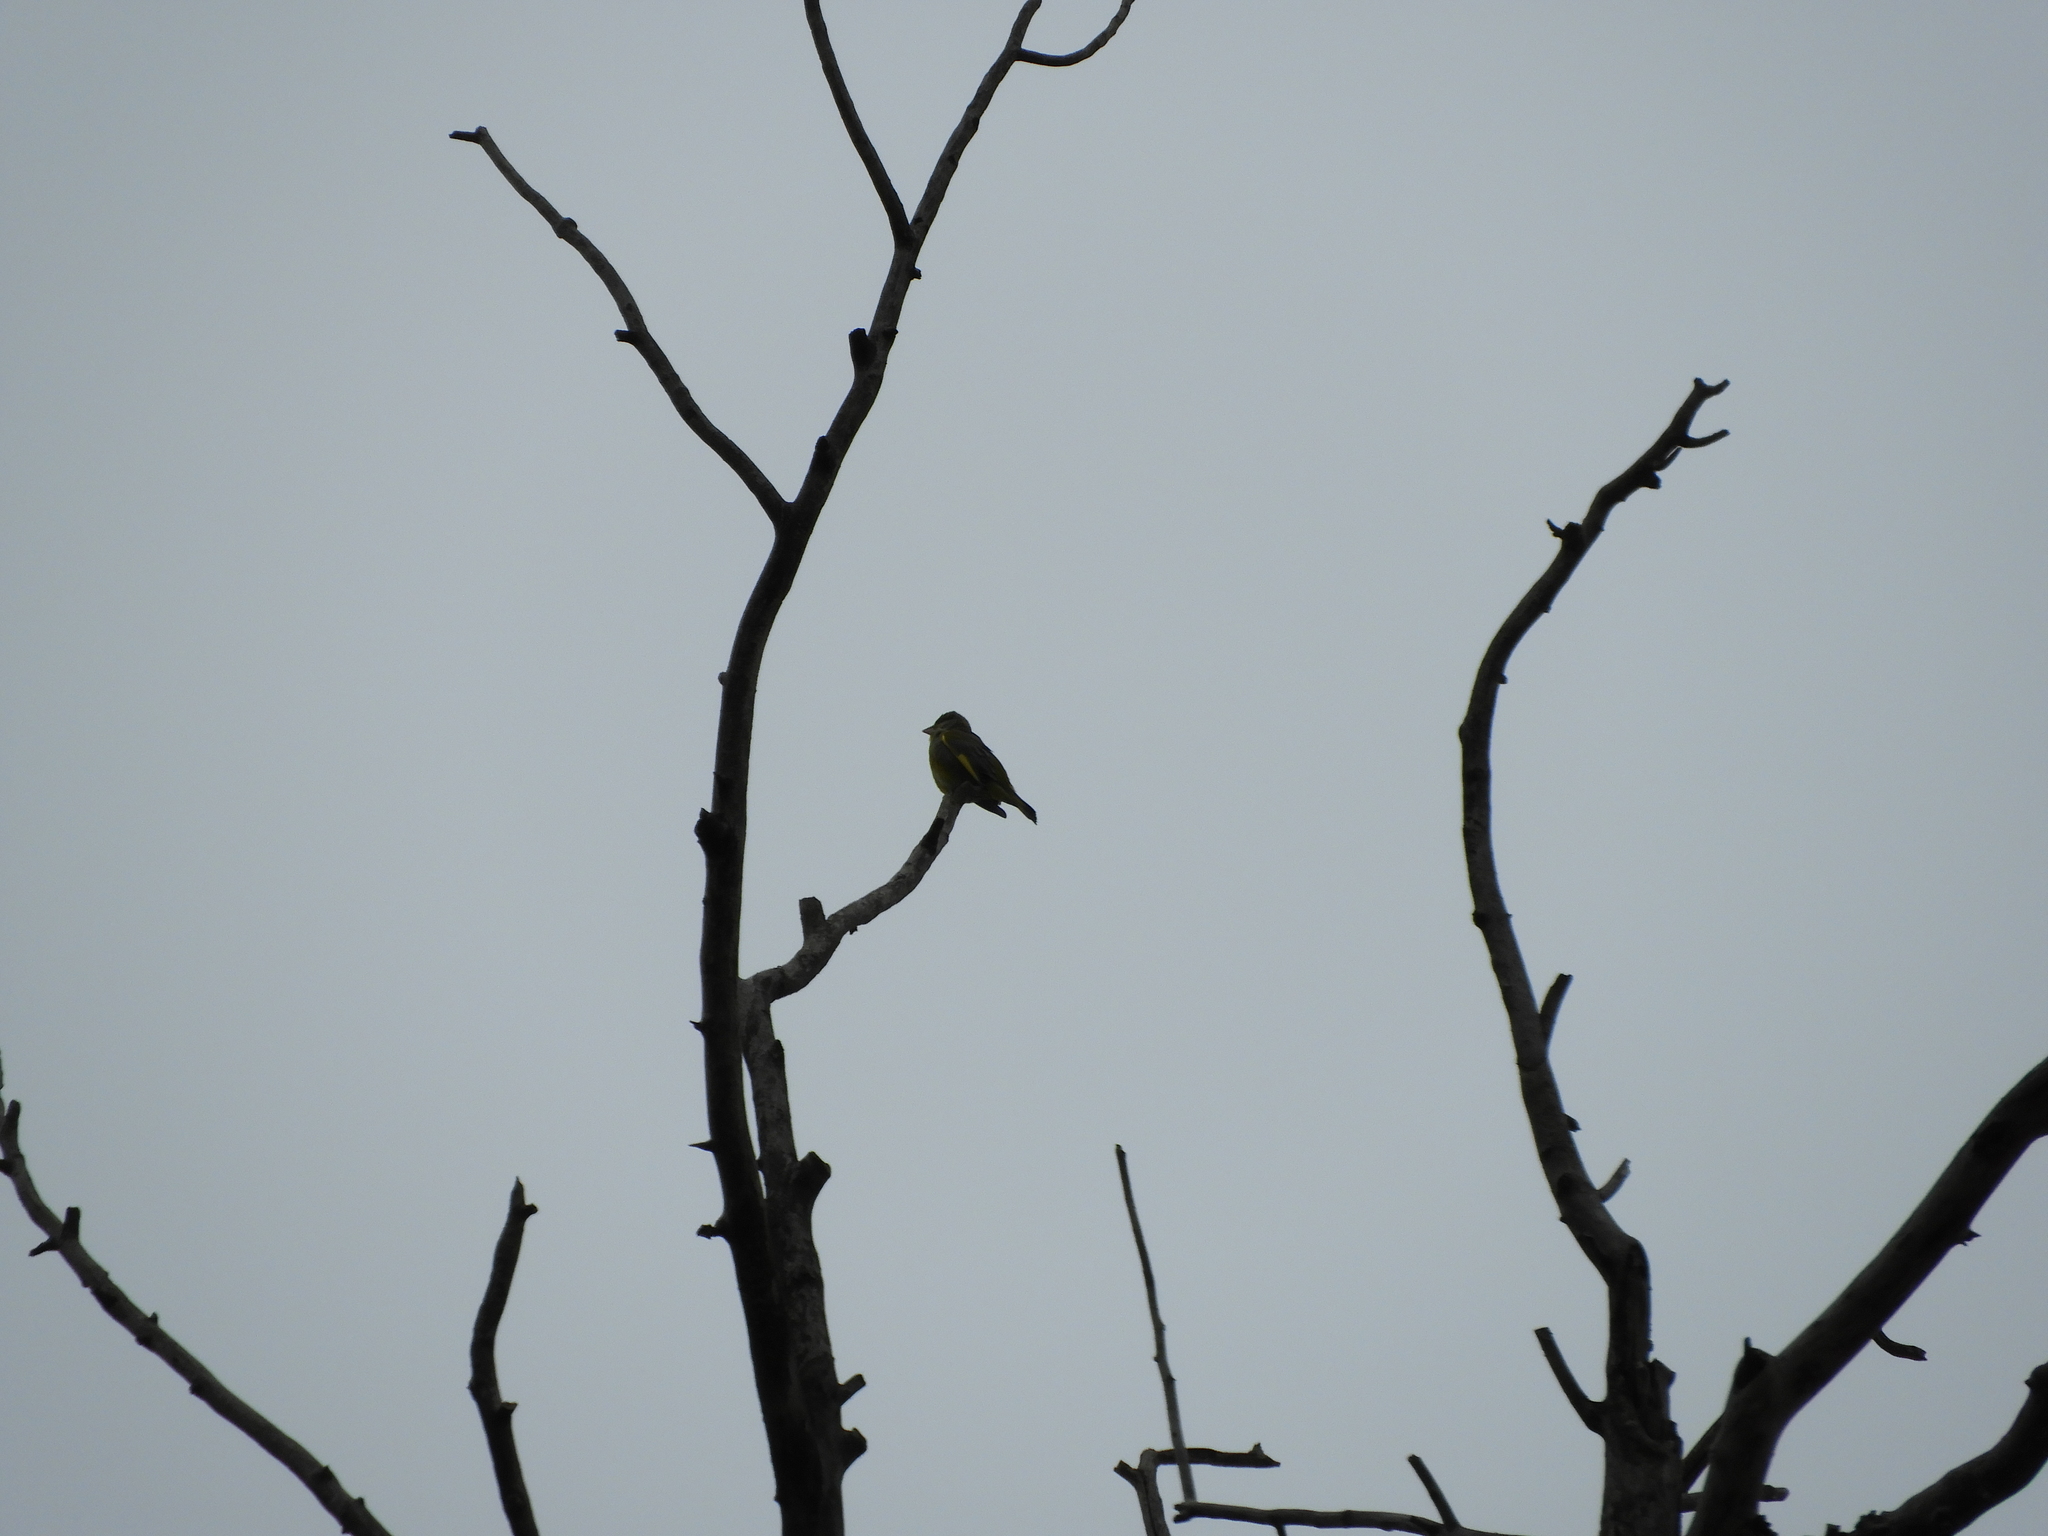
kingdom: Plantae
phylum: Tracheophyta
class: Liliopsida
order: Poales
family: Poaceae
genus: Chloris
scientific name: Chloris chloris
